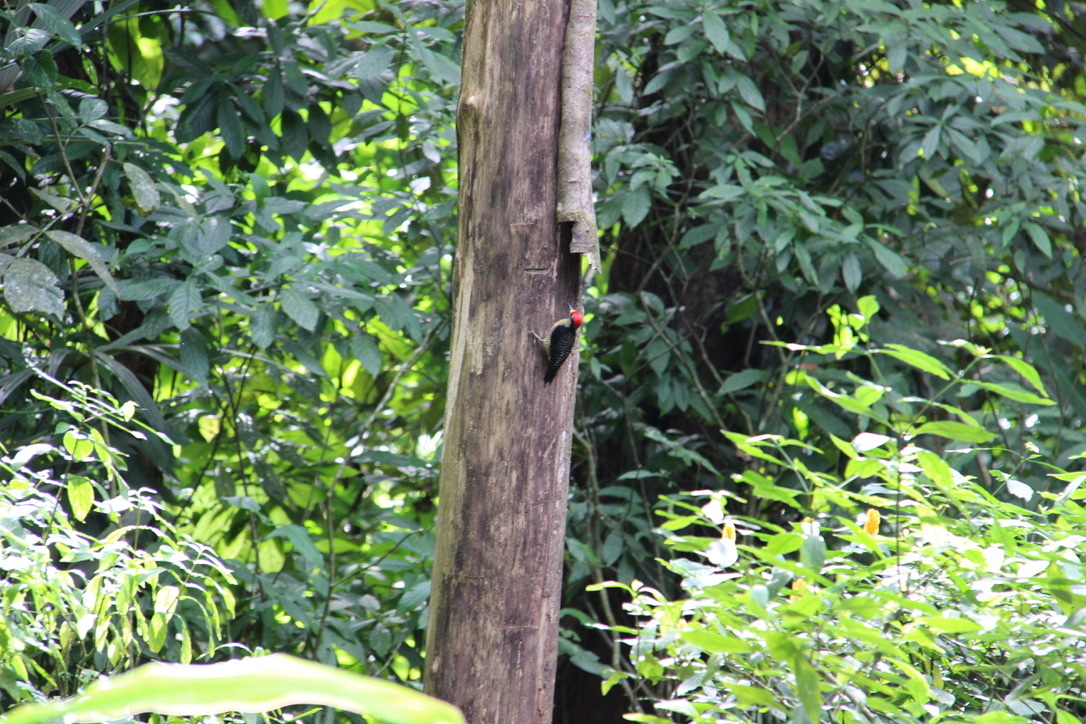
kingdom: Animalia
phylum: Chordata
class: Aves
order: Piciformes
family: Picidae
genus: Melanerpes
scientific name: Melanerpes pucherani
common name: Black-cheeked woodpecker
